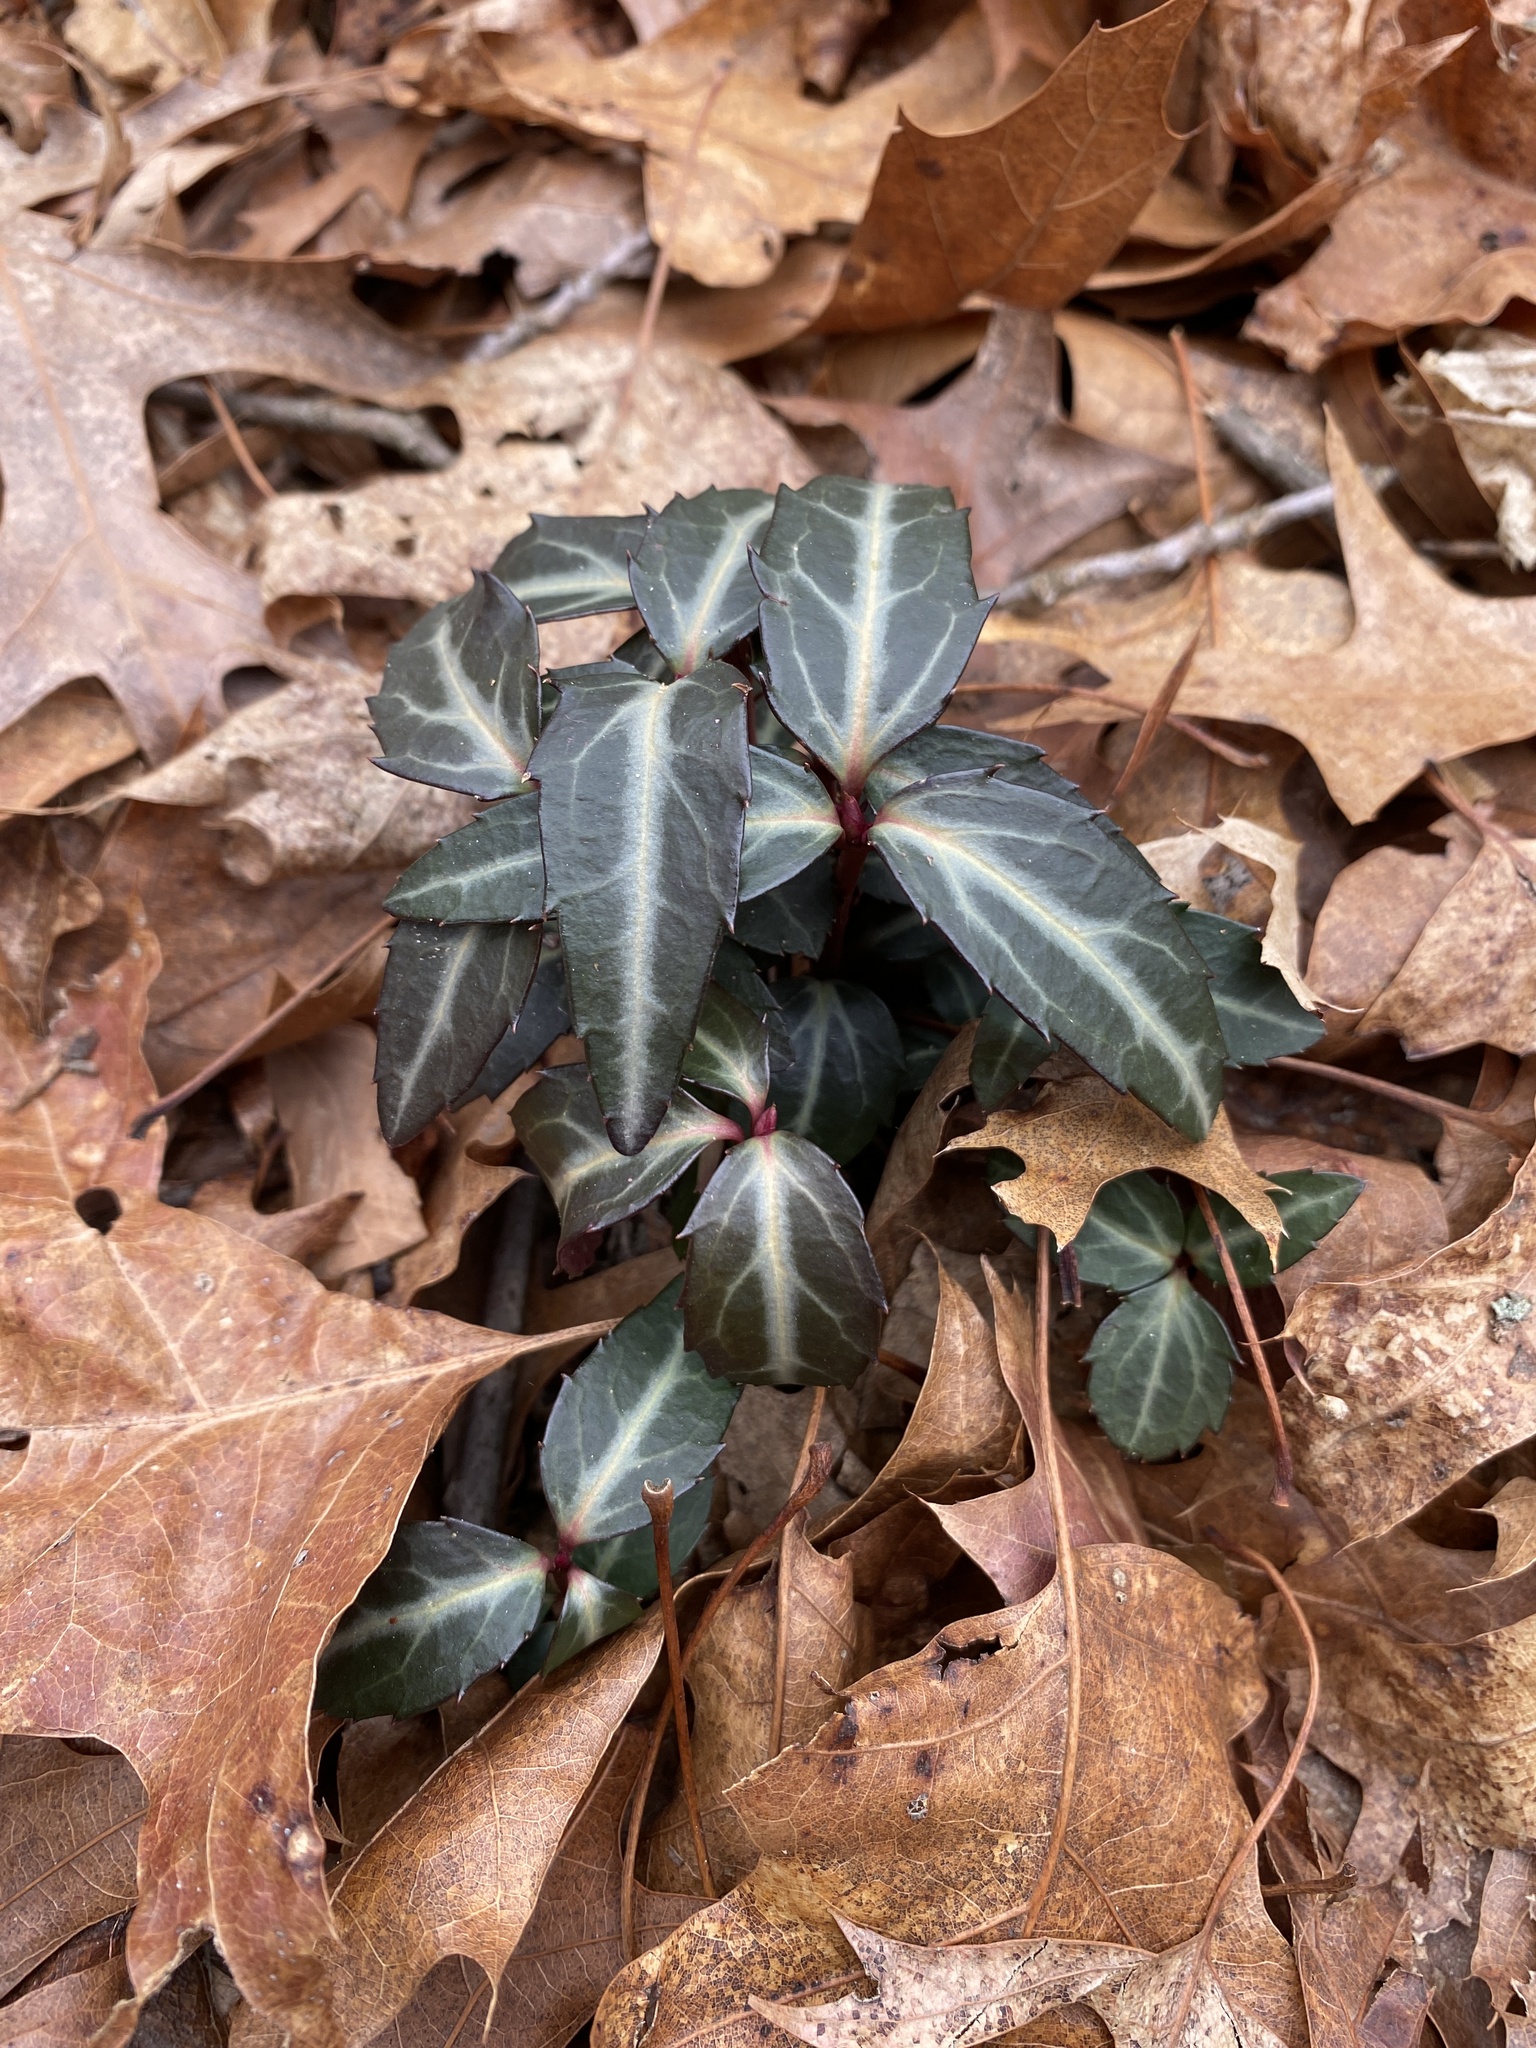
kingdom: Plantae
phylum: Tracheophyta
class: Magnoliopsida
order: Ericales
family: Ericaceae
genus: Chimaphila
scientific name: Chimaphila maculata
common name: Spotted pipsissewa
